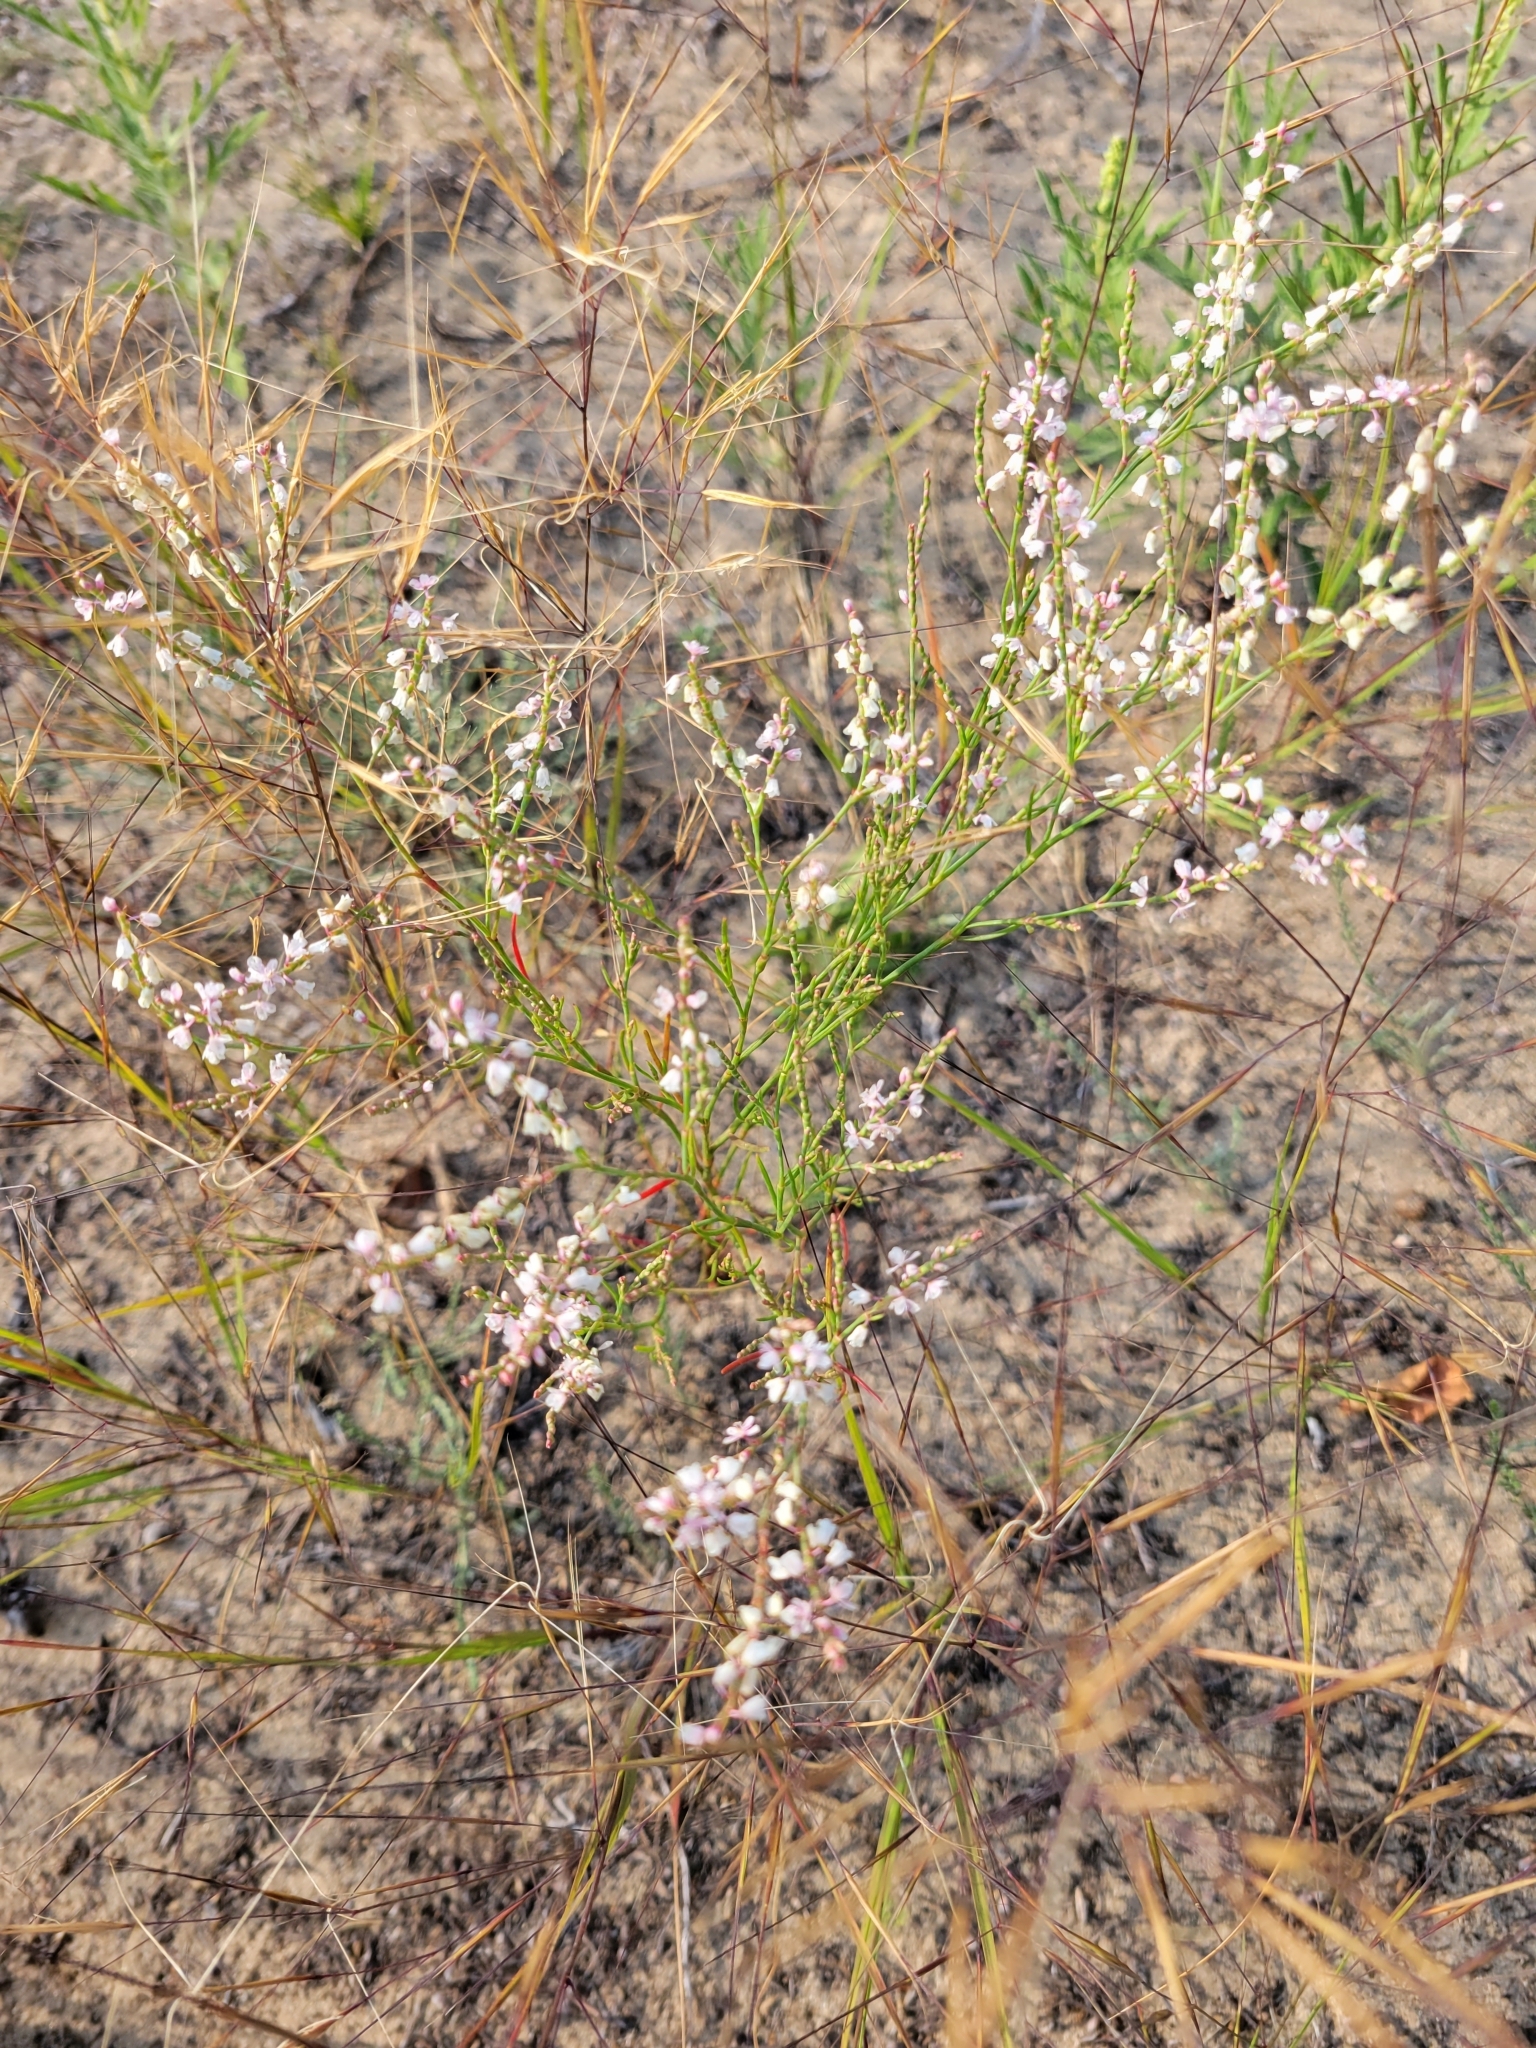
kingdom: Plantae
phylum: Tracheophyta
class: Magnoliopsida
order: Caryophyllales
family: Polygonaceae
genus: Polygonella
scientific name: Polygonella articulata
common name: Coastal jointweed
